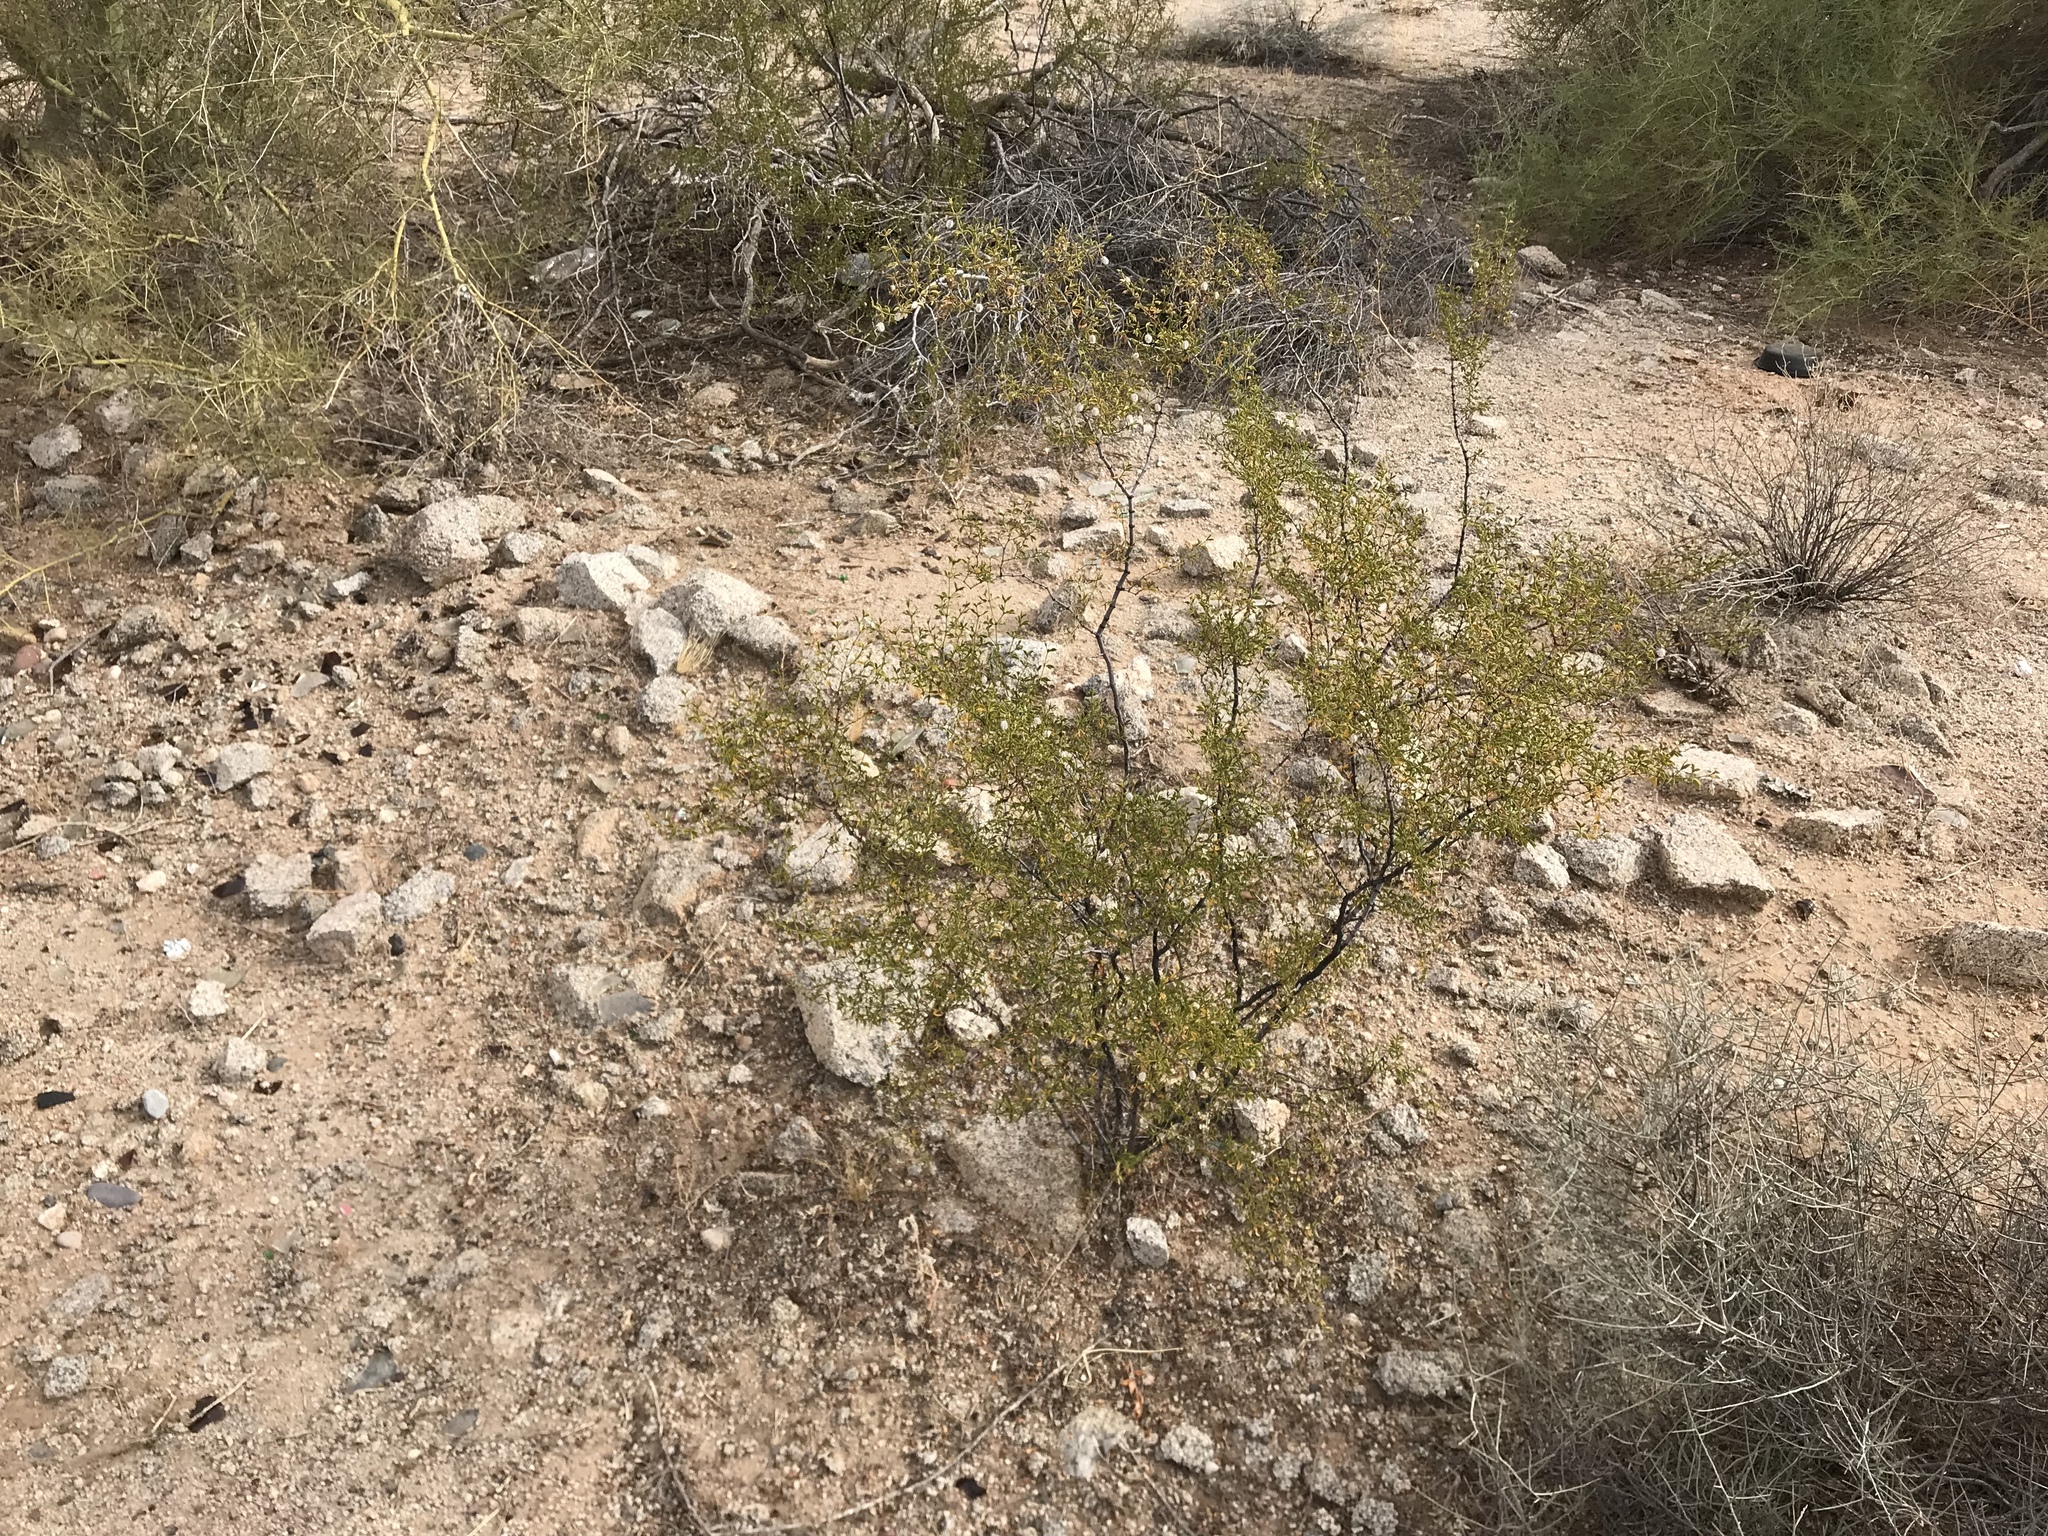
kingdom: Plantae
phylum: Tracheophyta
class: Magnoliopsida
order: Zygophyllales
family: Zygophyllaceae
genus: Larrea
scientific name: Larrea tridentata
